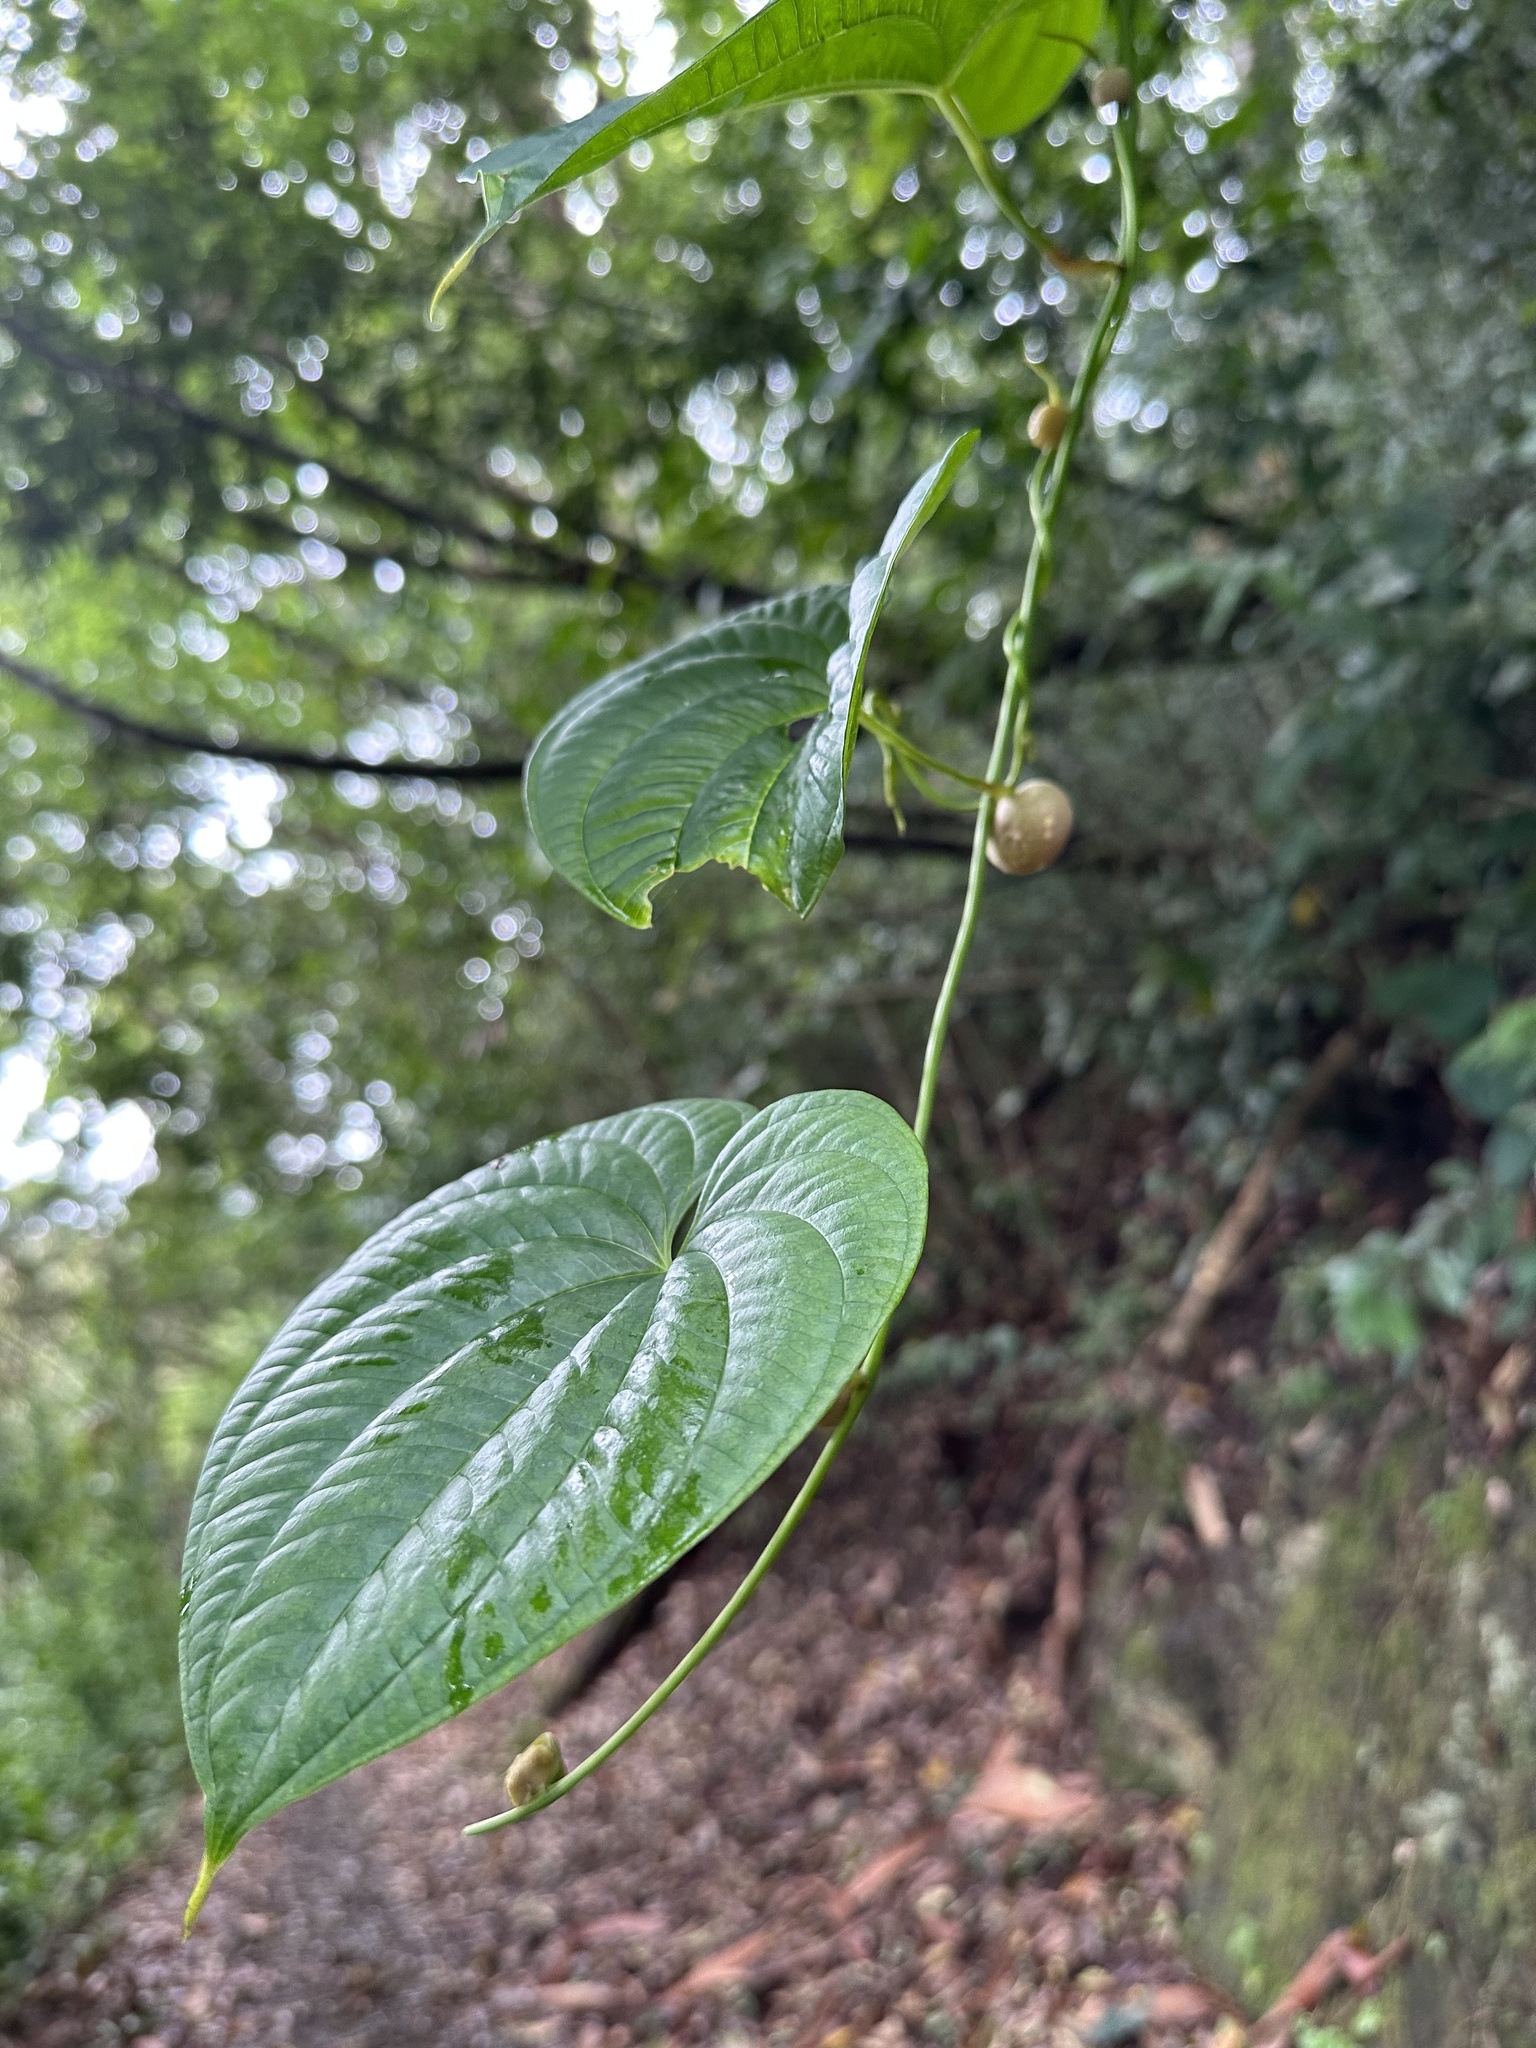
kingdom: Plantae
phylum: Tracheophyta
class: Liliopsida
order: Dioscoreales
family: Dioscoreaceae
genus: Dioscorea
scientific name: Dioscorea bulbifera
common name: Air yam
